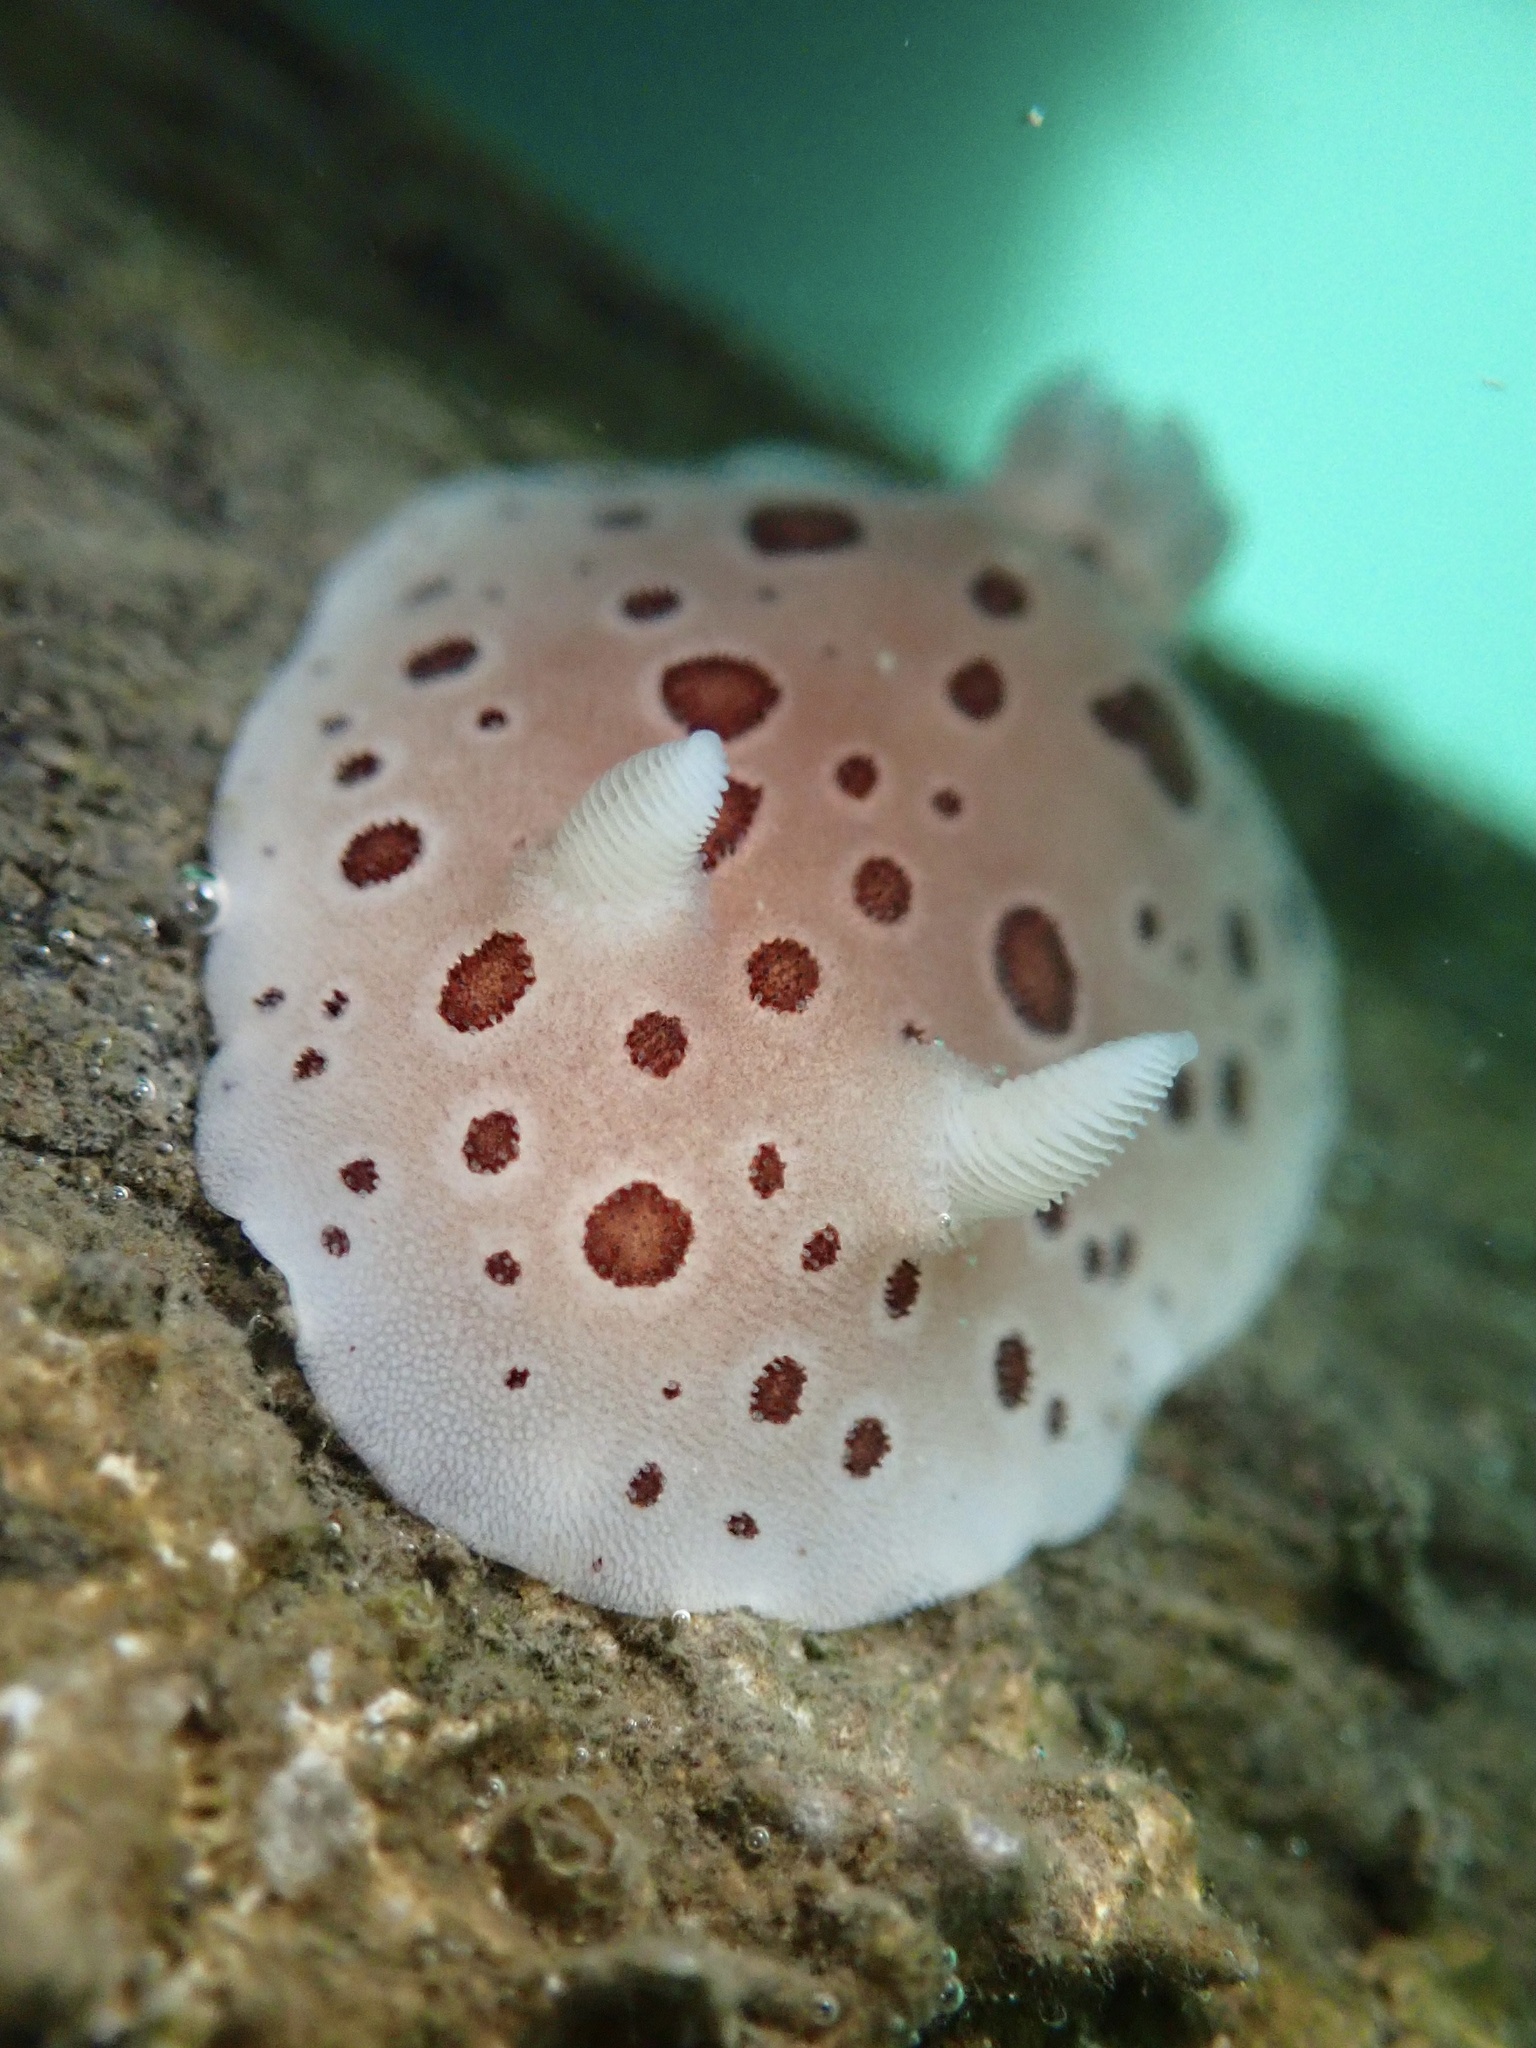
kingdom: Animalia
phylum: Mollusca
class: Gastropoda
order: Nudibranchia
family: Discodorididae
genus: Diaulula
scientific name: Diaulula odonoghuei
